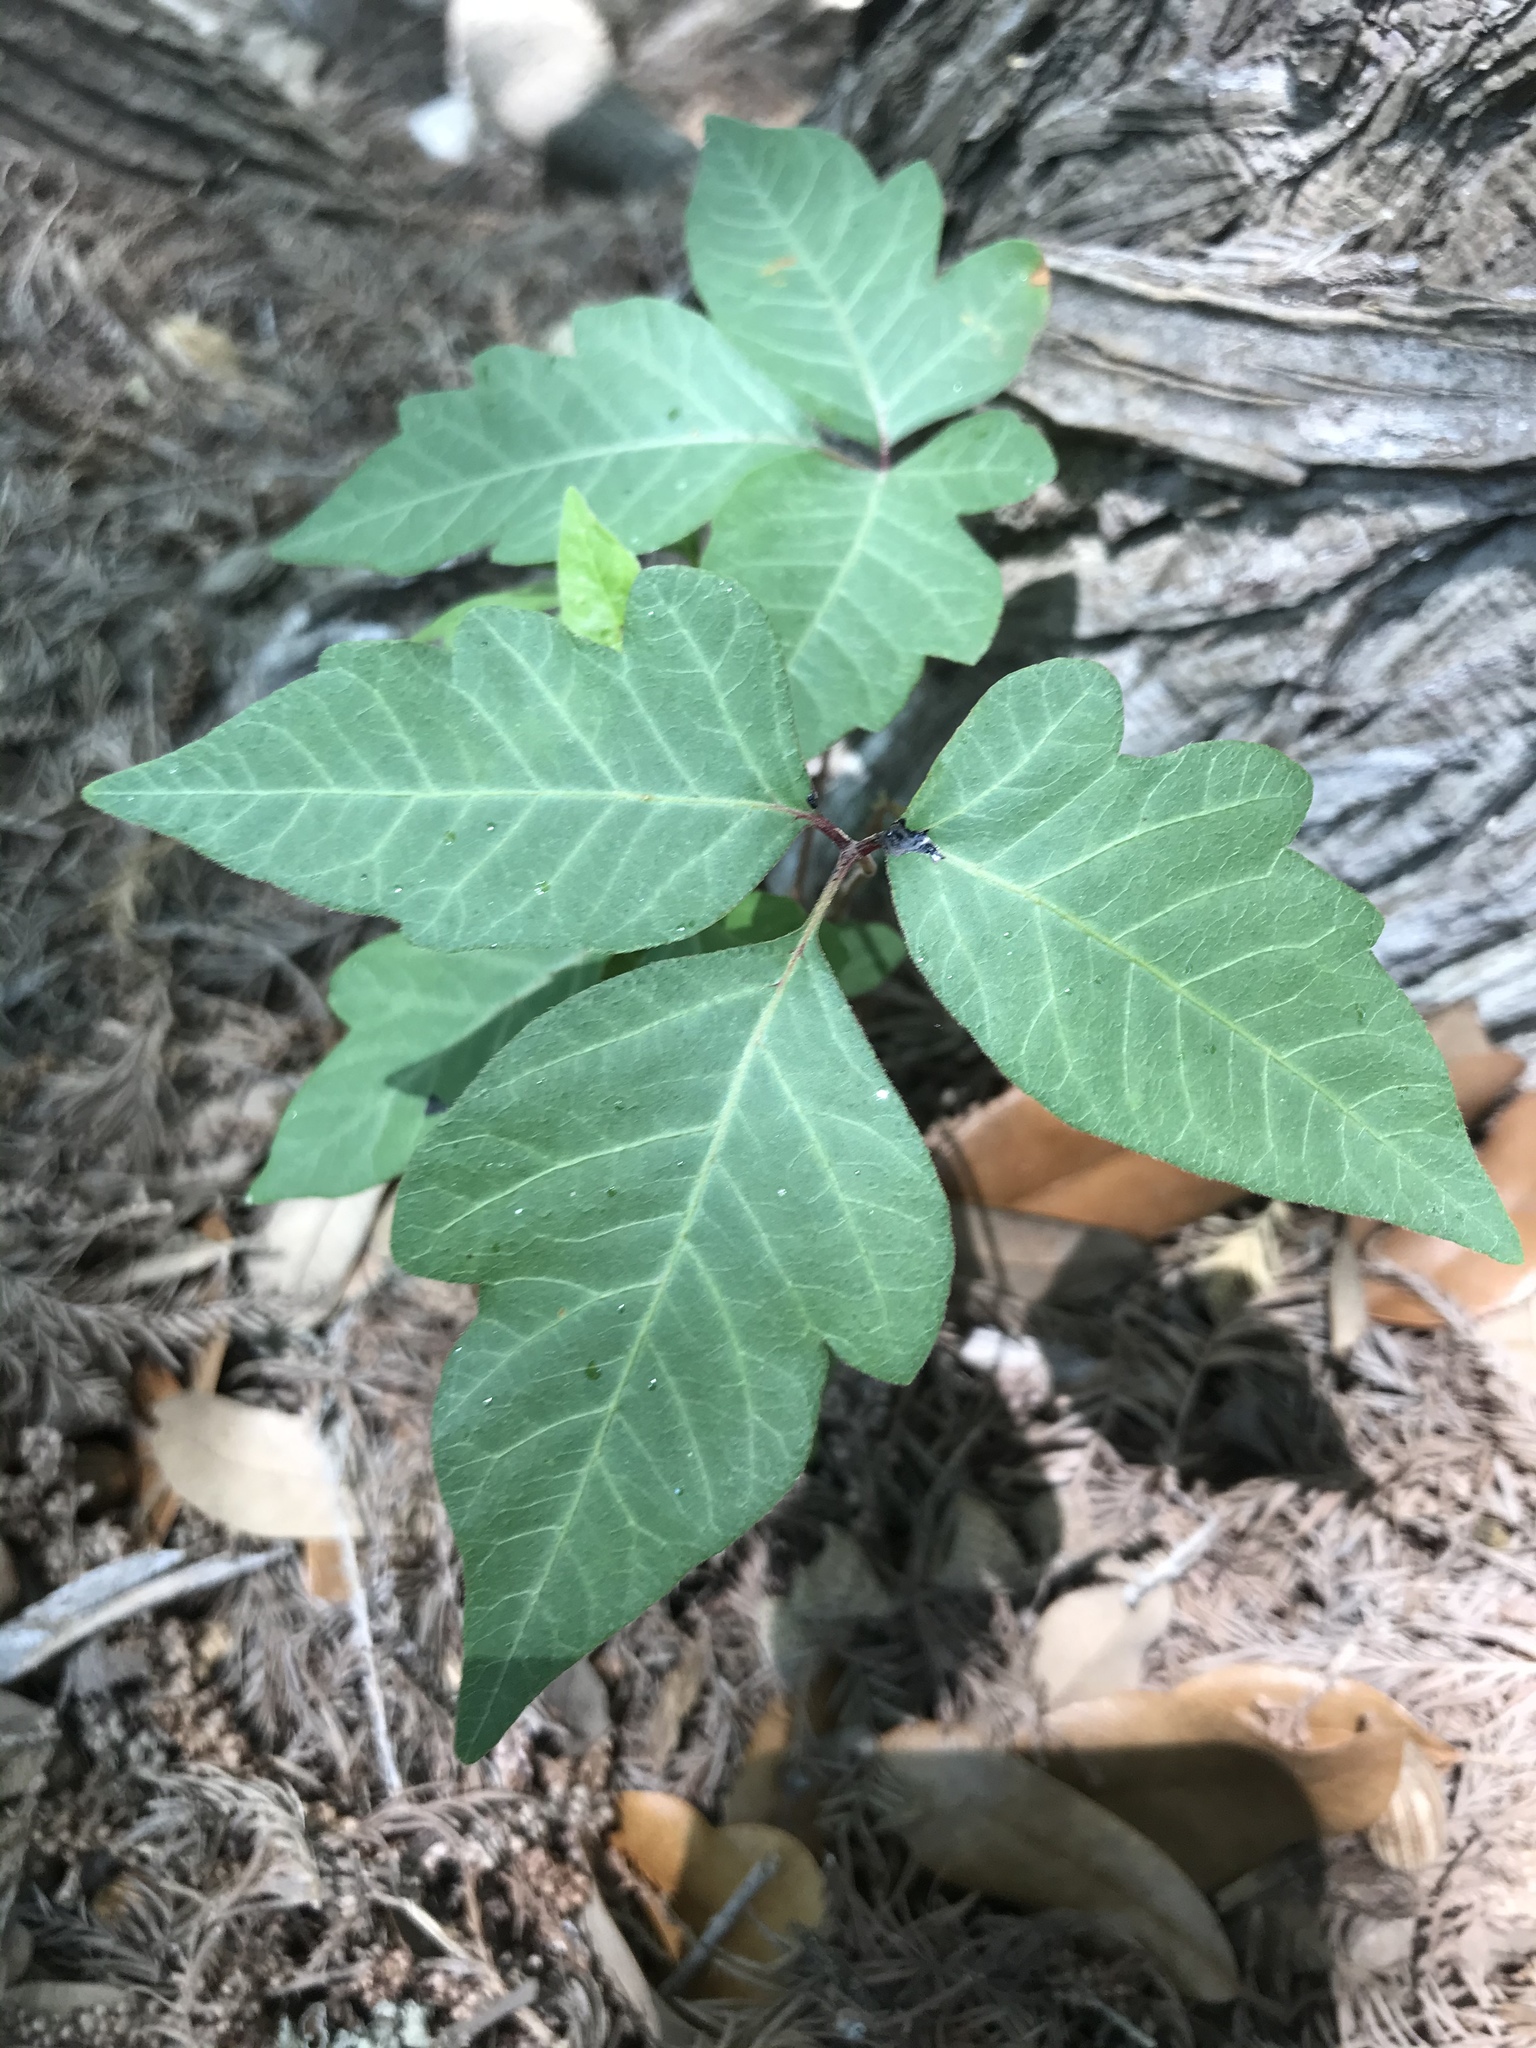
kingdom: Plantae
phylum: Tracheophyta
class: Magnoliopsida
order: Sapindales
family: Anacardiaceae
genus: Toxicodendron
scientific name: Toxicodendron radicans
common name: Poison ivy
